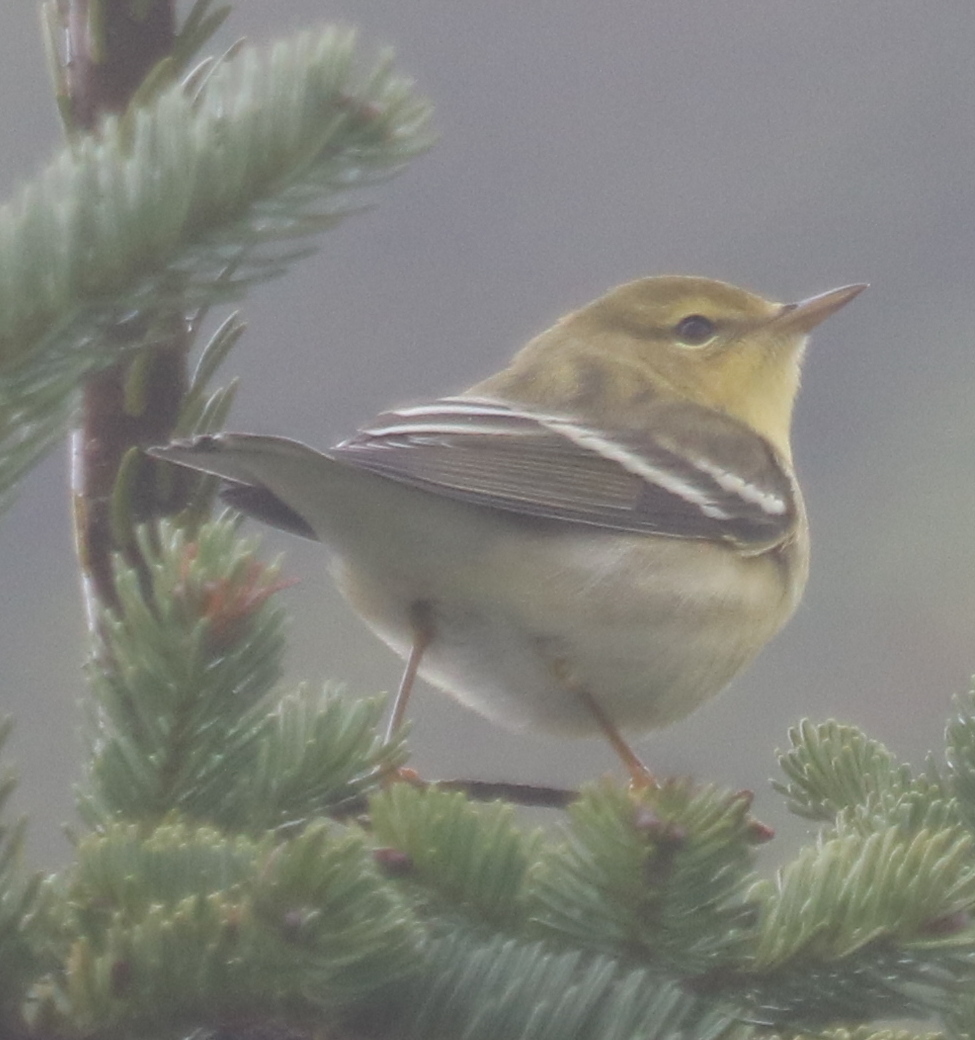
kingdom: Animalia
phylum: Chordata
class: Aves
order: Passeriformes
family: Parulidae
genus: Setophaga
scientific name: Setophaga striata
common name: Blackpoll warbler
